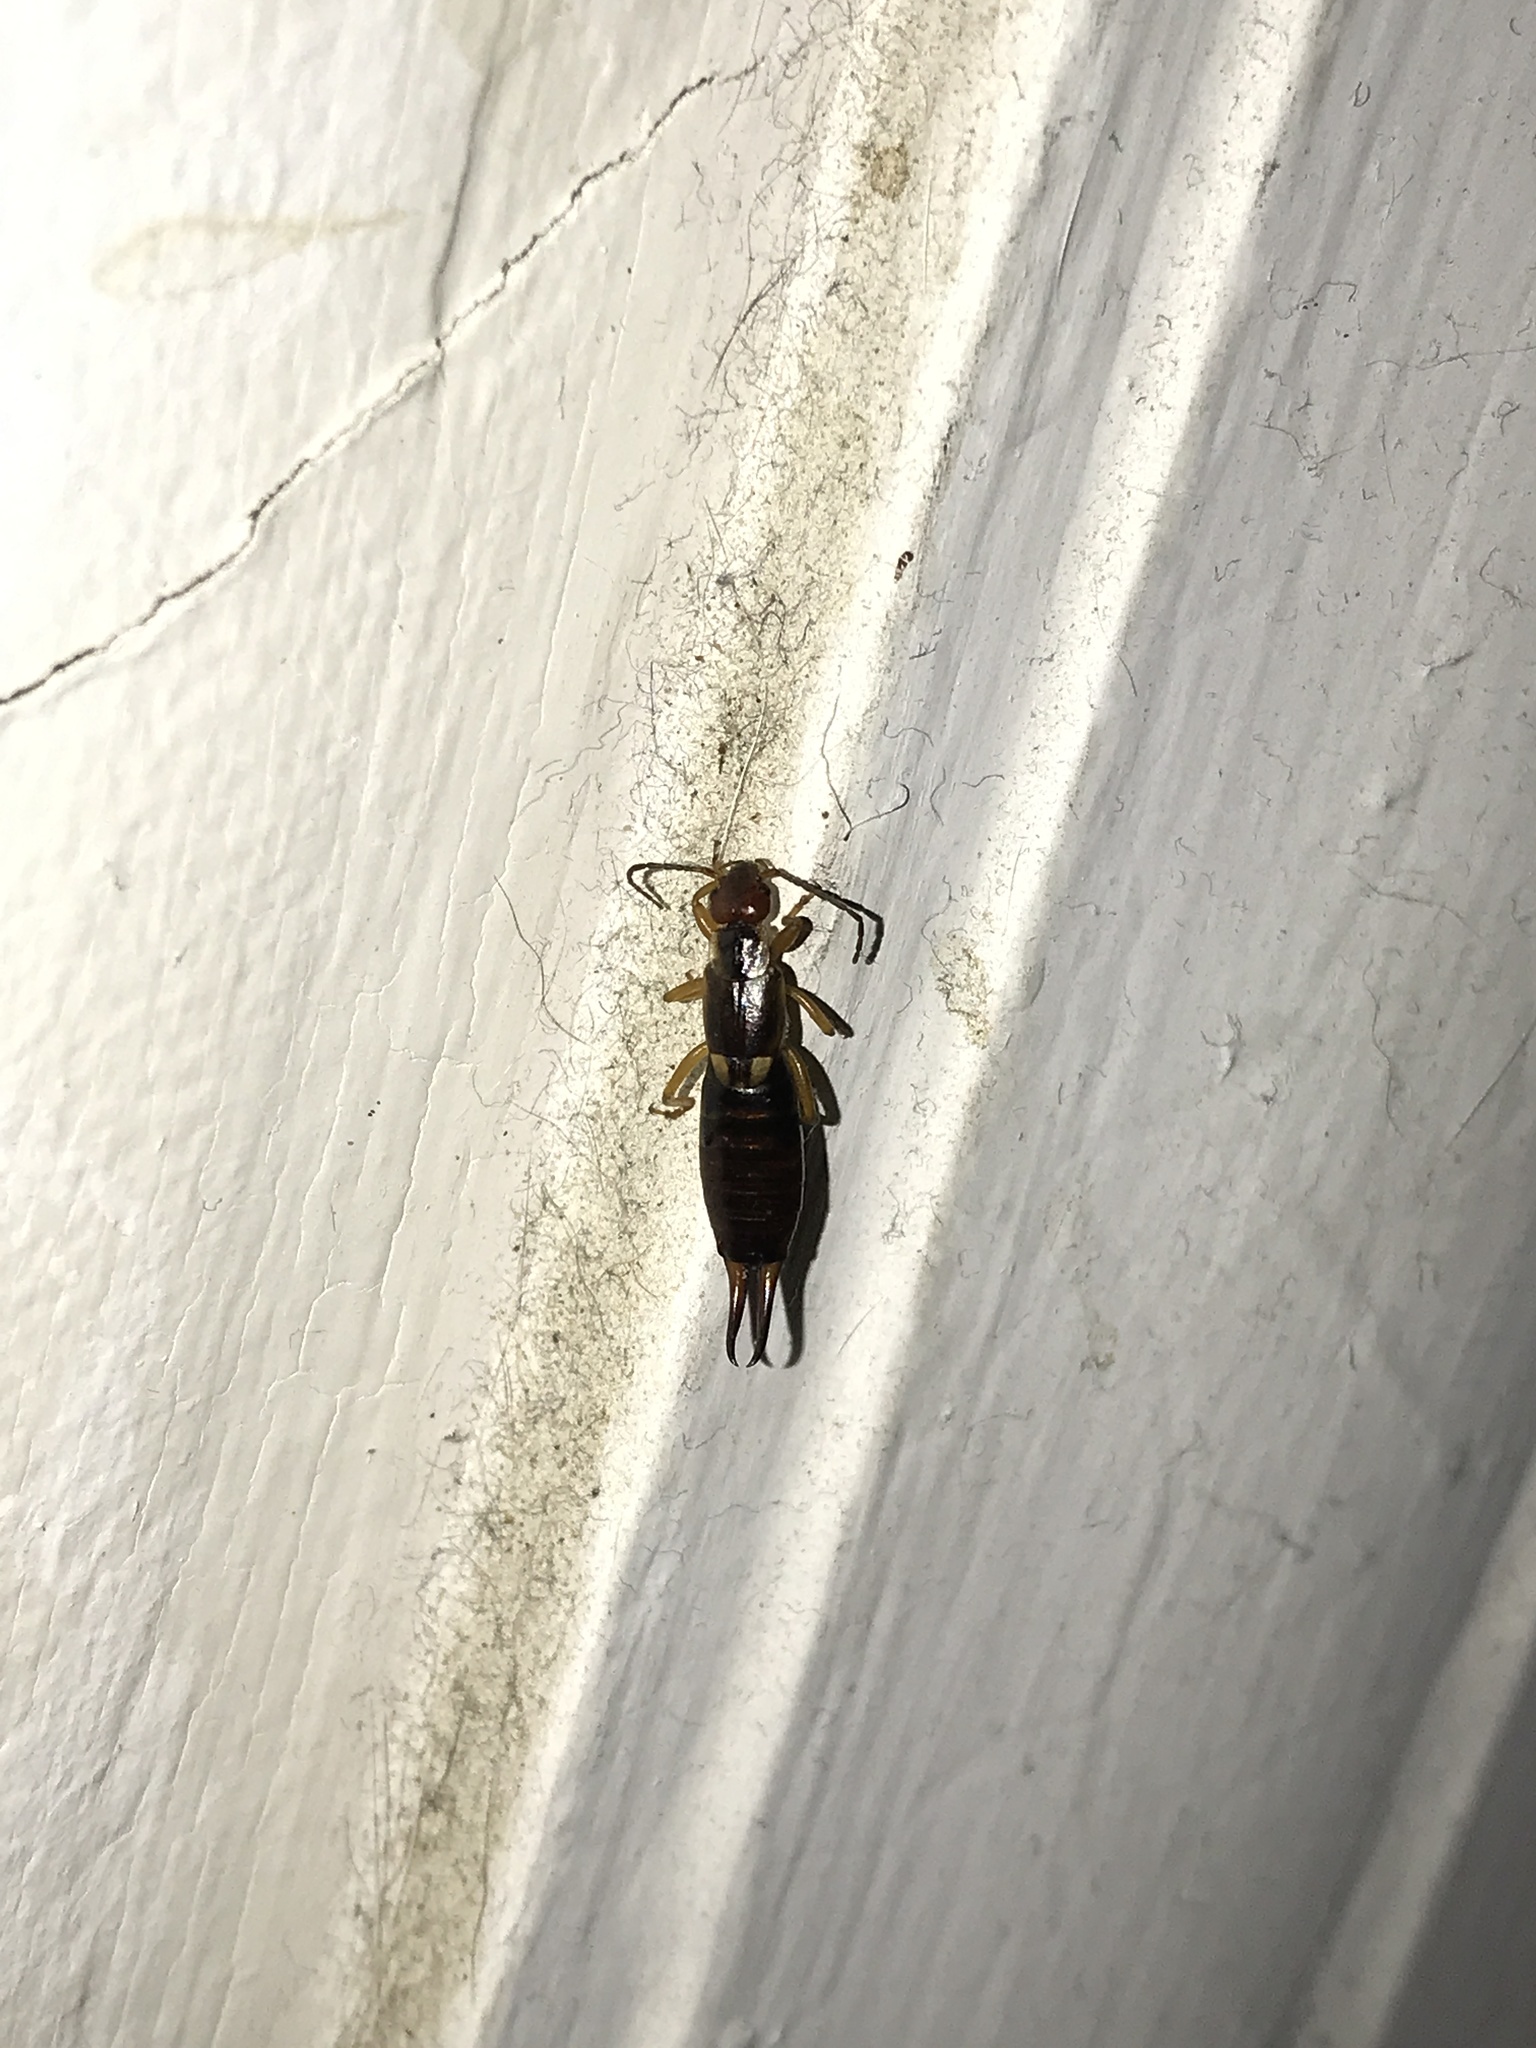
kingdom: Animalia
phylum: Arthropoda
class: Insecta
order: Dermaptera
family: Forficulidae
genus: Forficula
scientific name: Forficula
